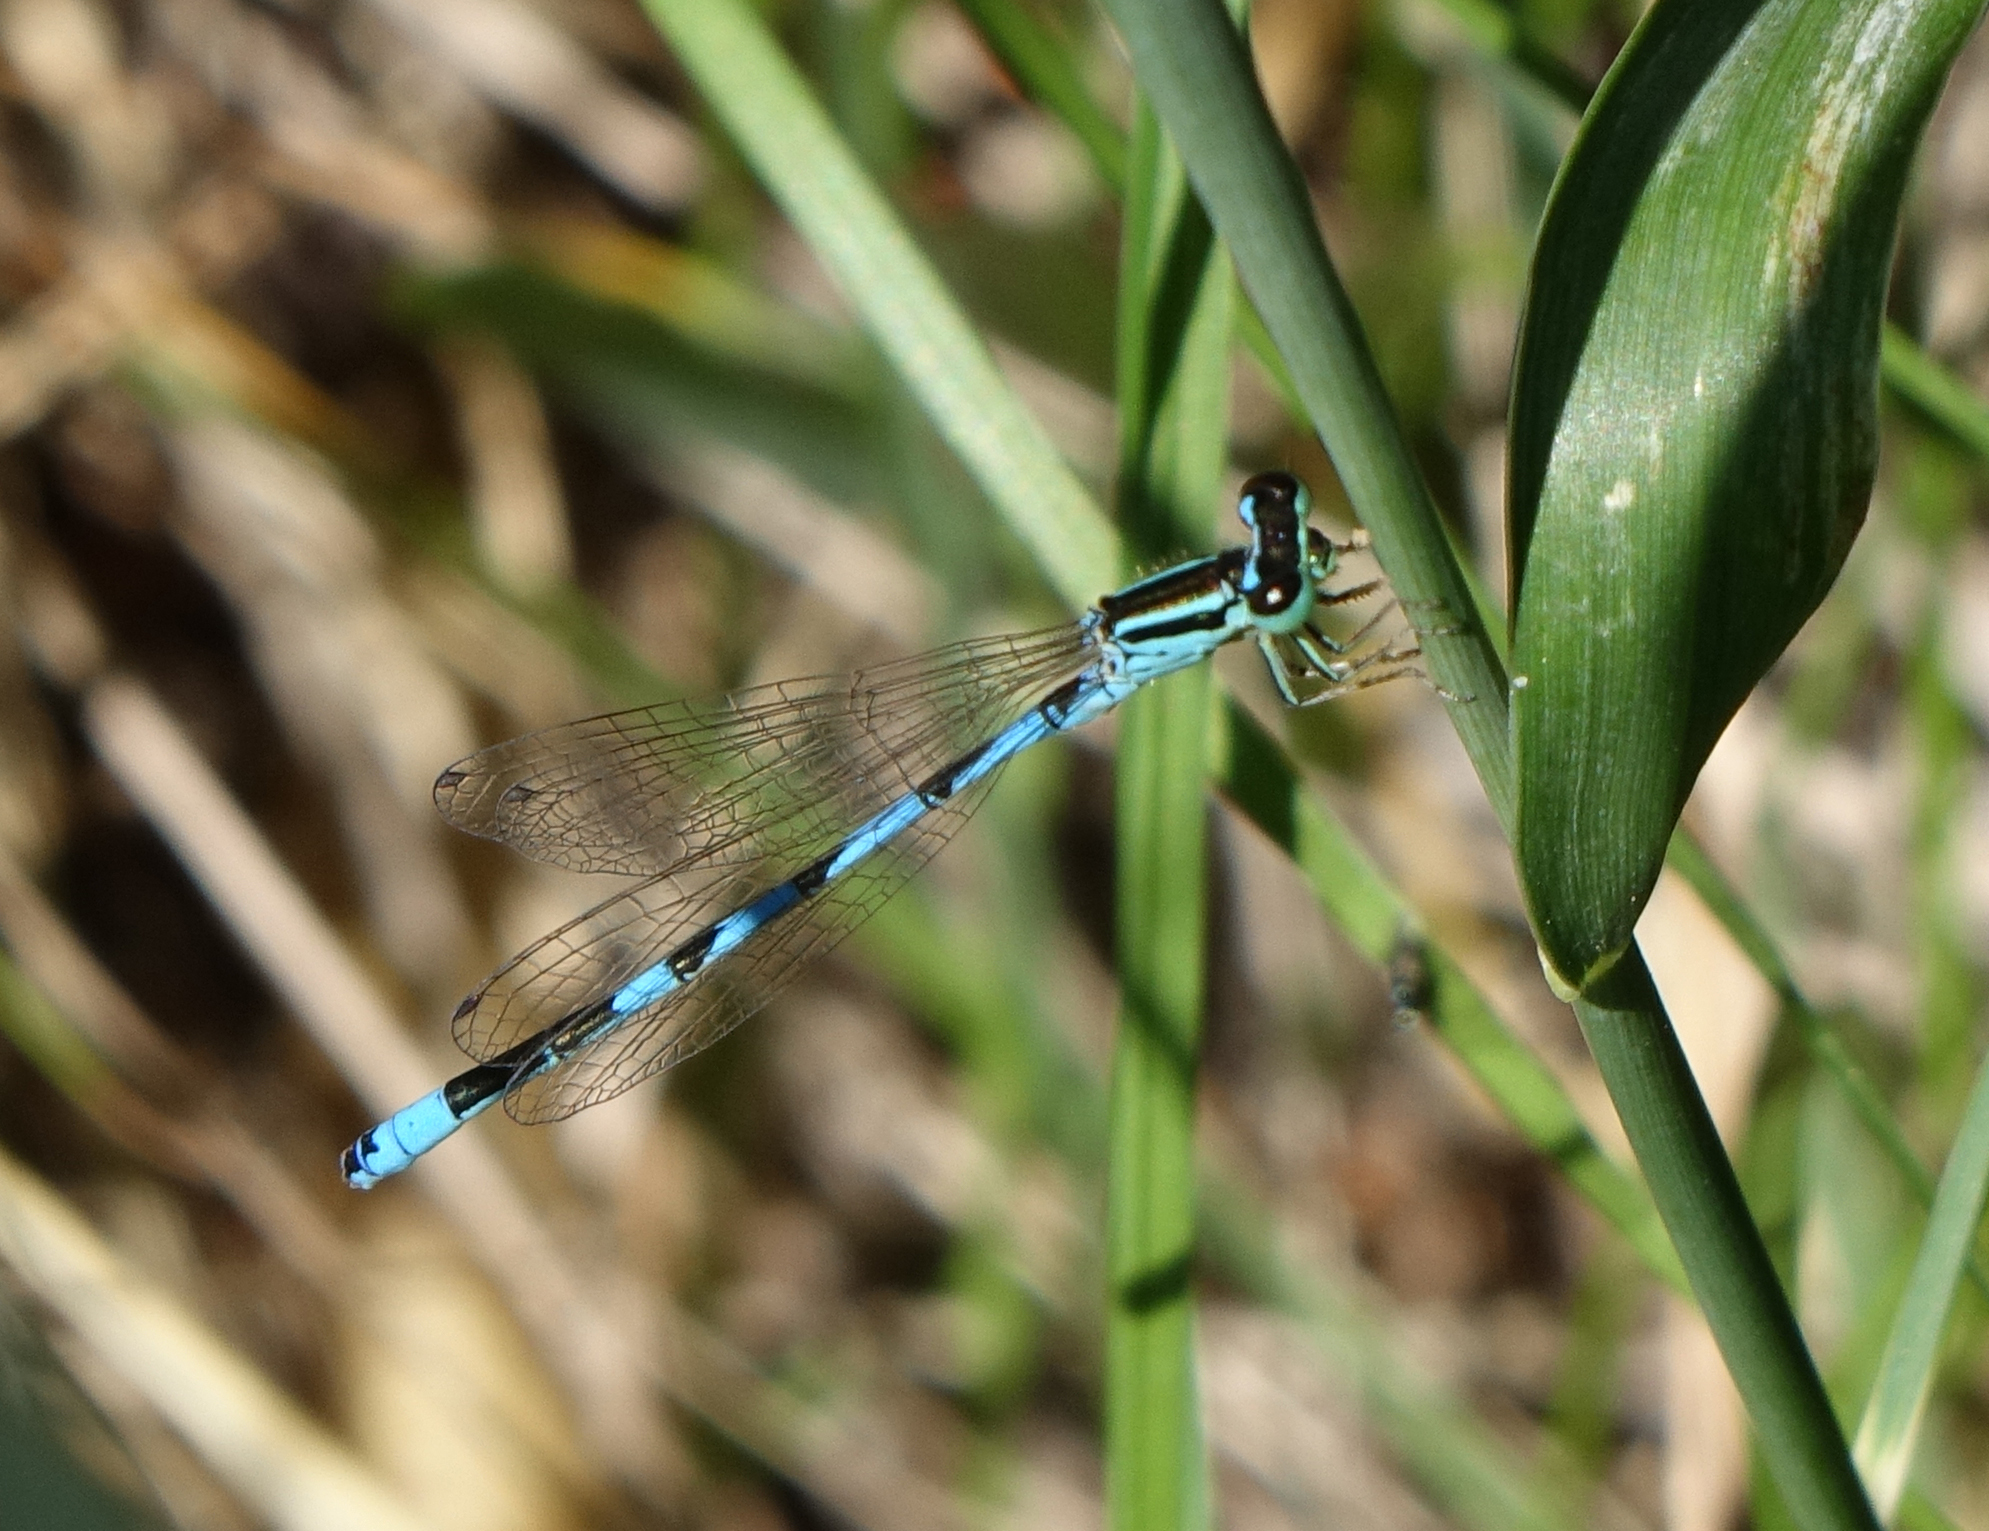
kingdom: Animalia
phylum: Arthropoda
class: Insecta
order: Odonata
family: Coenagrionidae
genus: Coenagrion
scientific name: Coenagrion ecornutum
